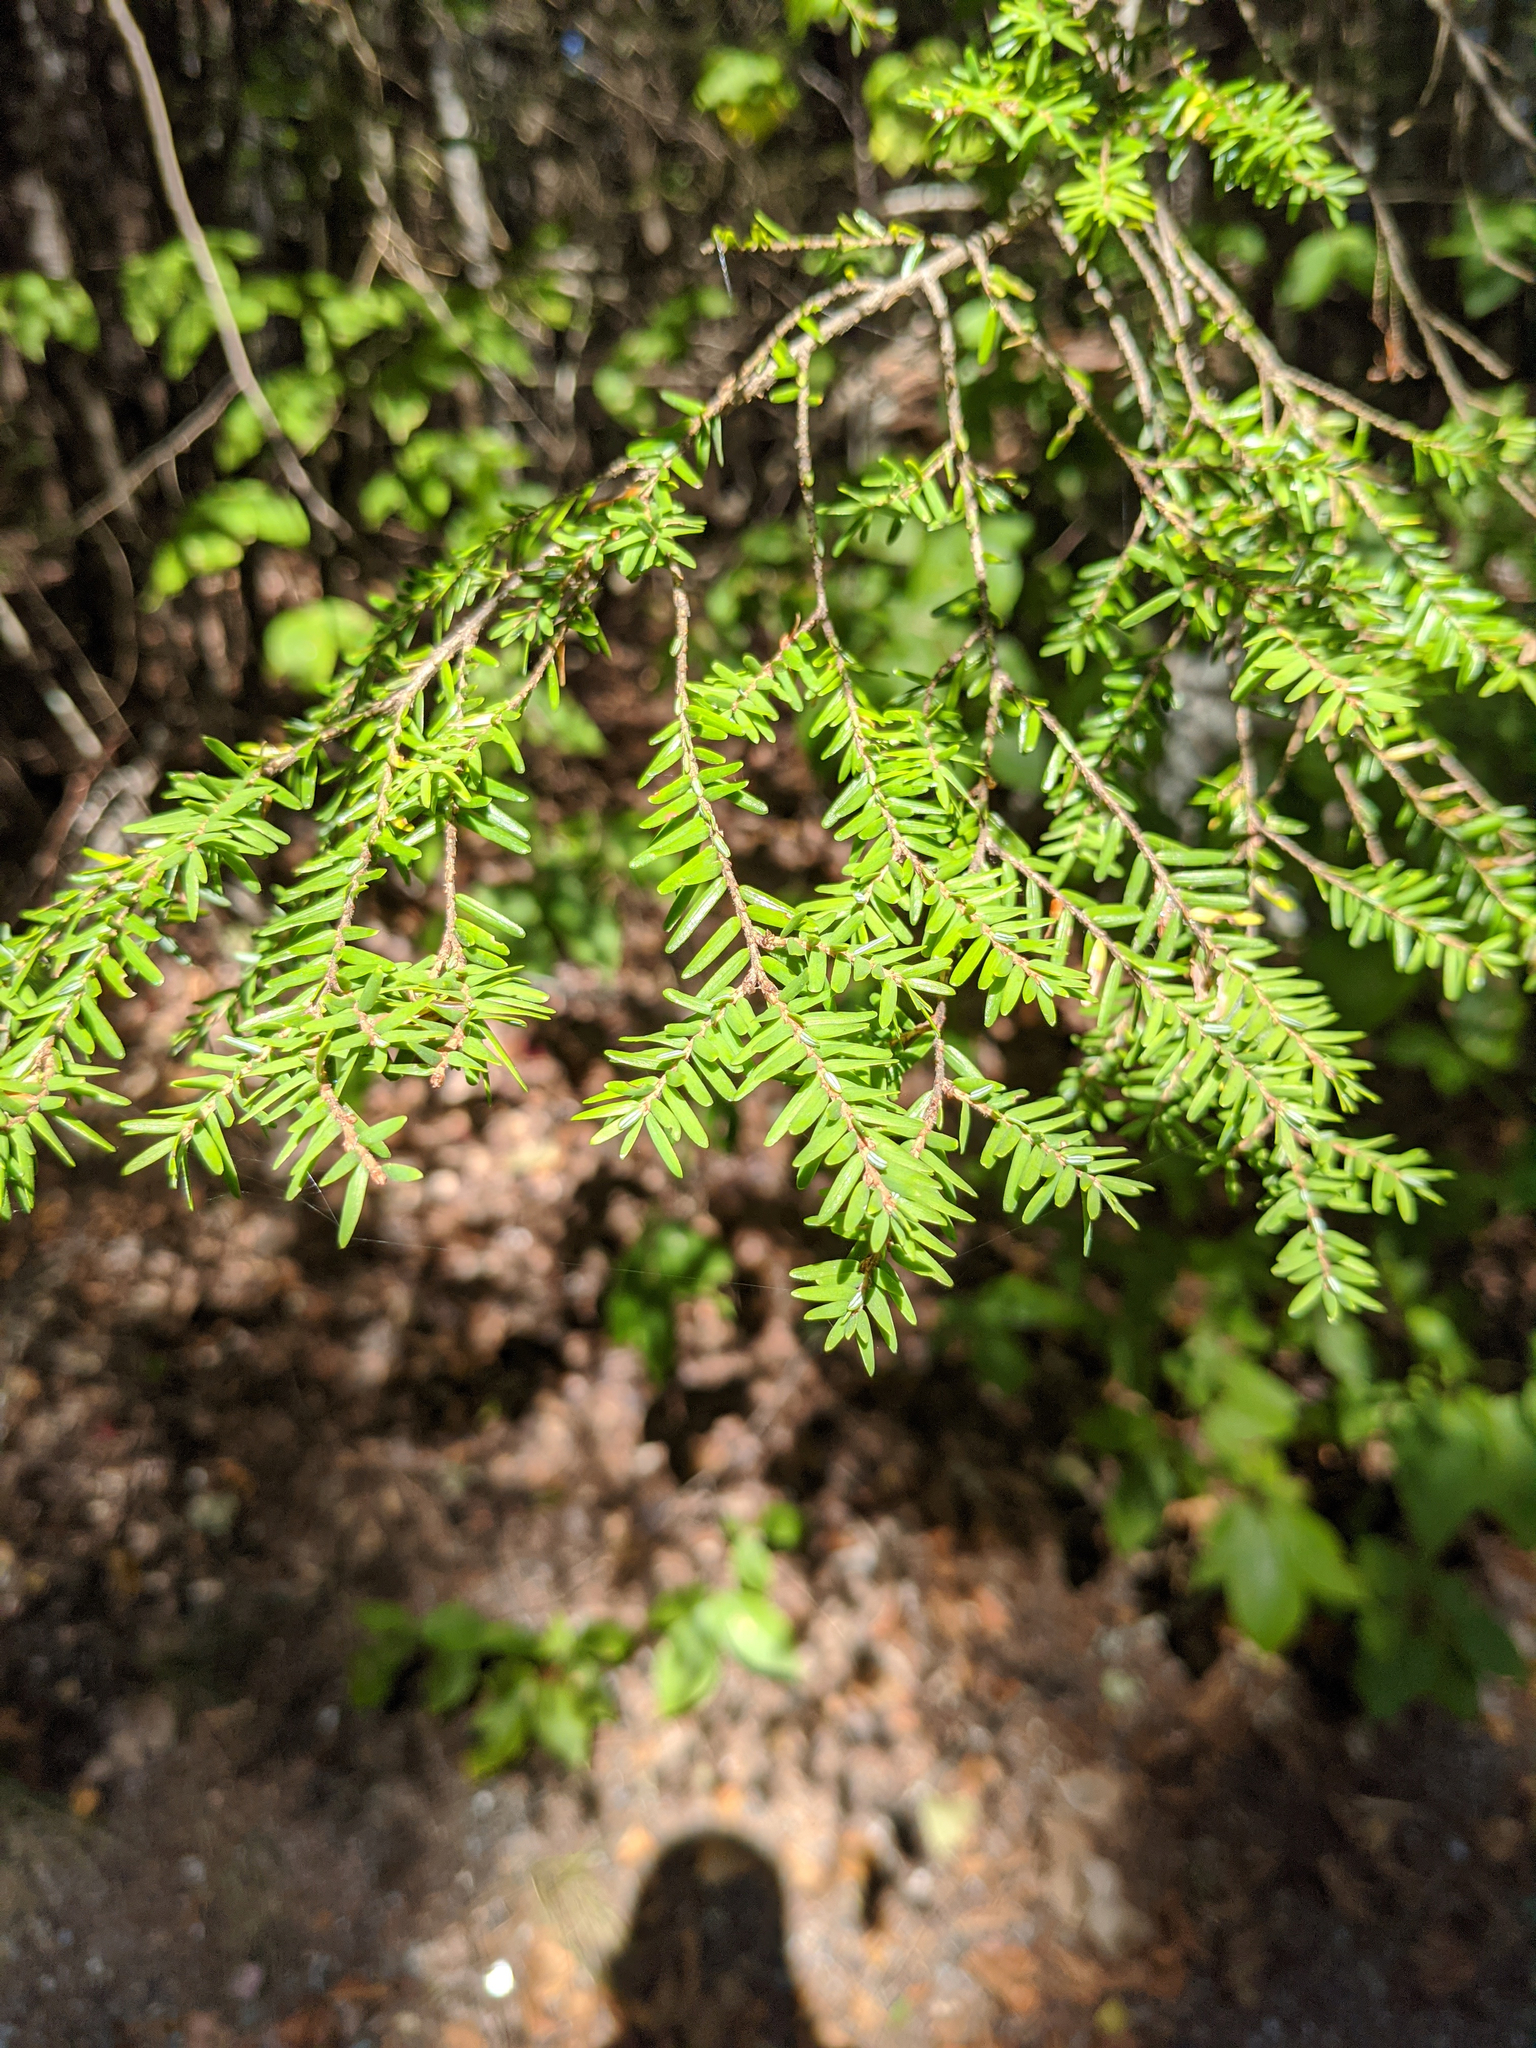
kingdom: Plantae
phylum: Tracheophyta
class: Pinopsida
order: Pinales
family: Pinaceae
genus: Tsuga
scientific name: Tsuga canadensis
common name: Eastern hemlock
